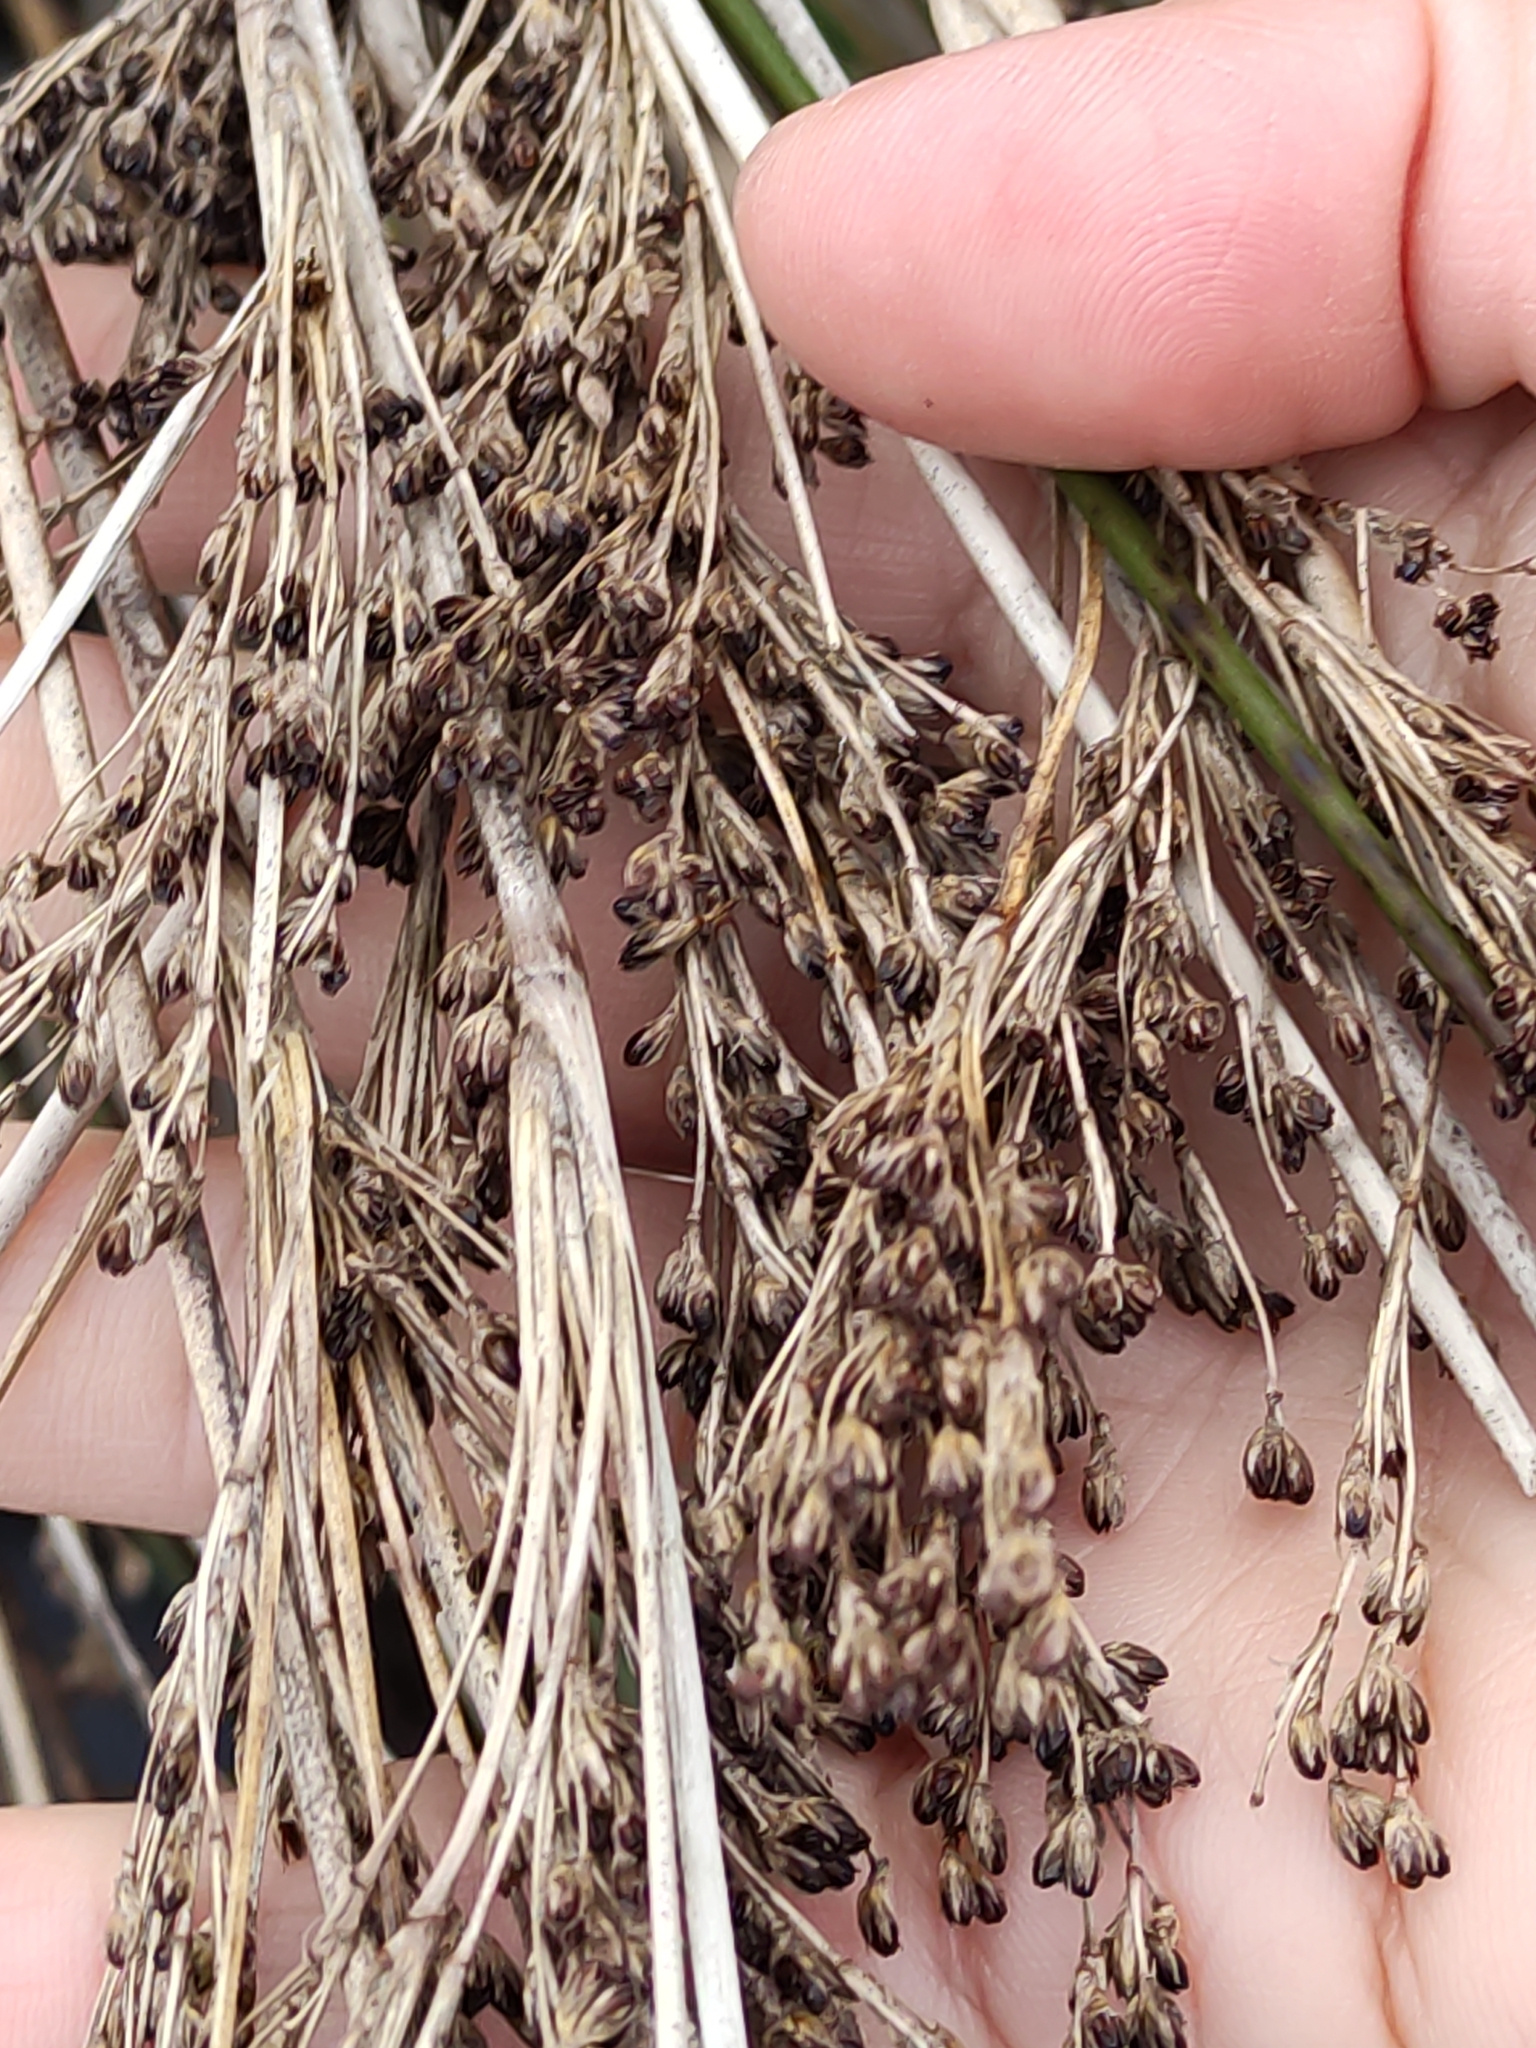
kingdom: Plantae
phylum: Tracheophyta
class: Liliopsida
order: Poales
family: Juncaceae
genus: Juncus
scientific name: Juncus kraussii
